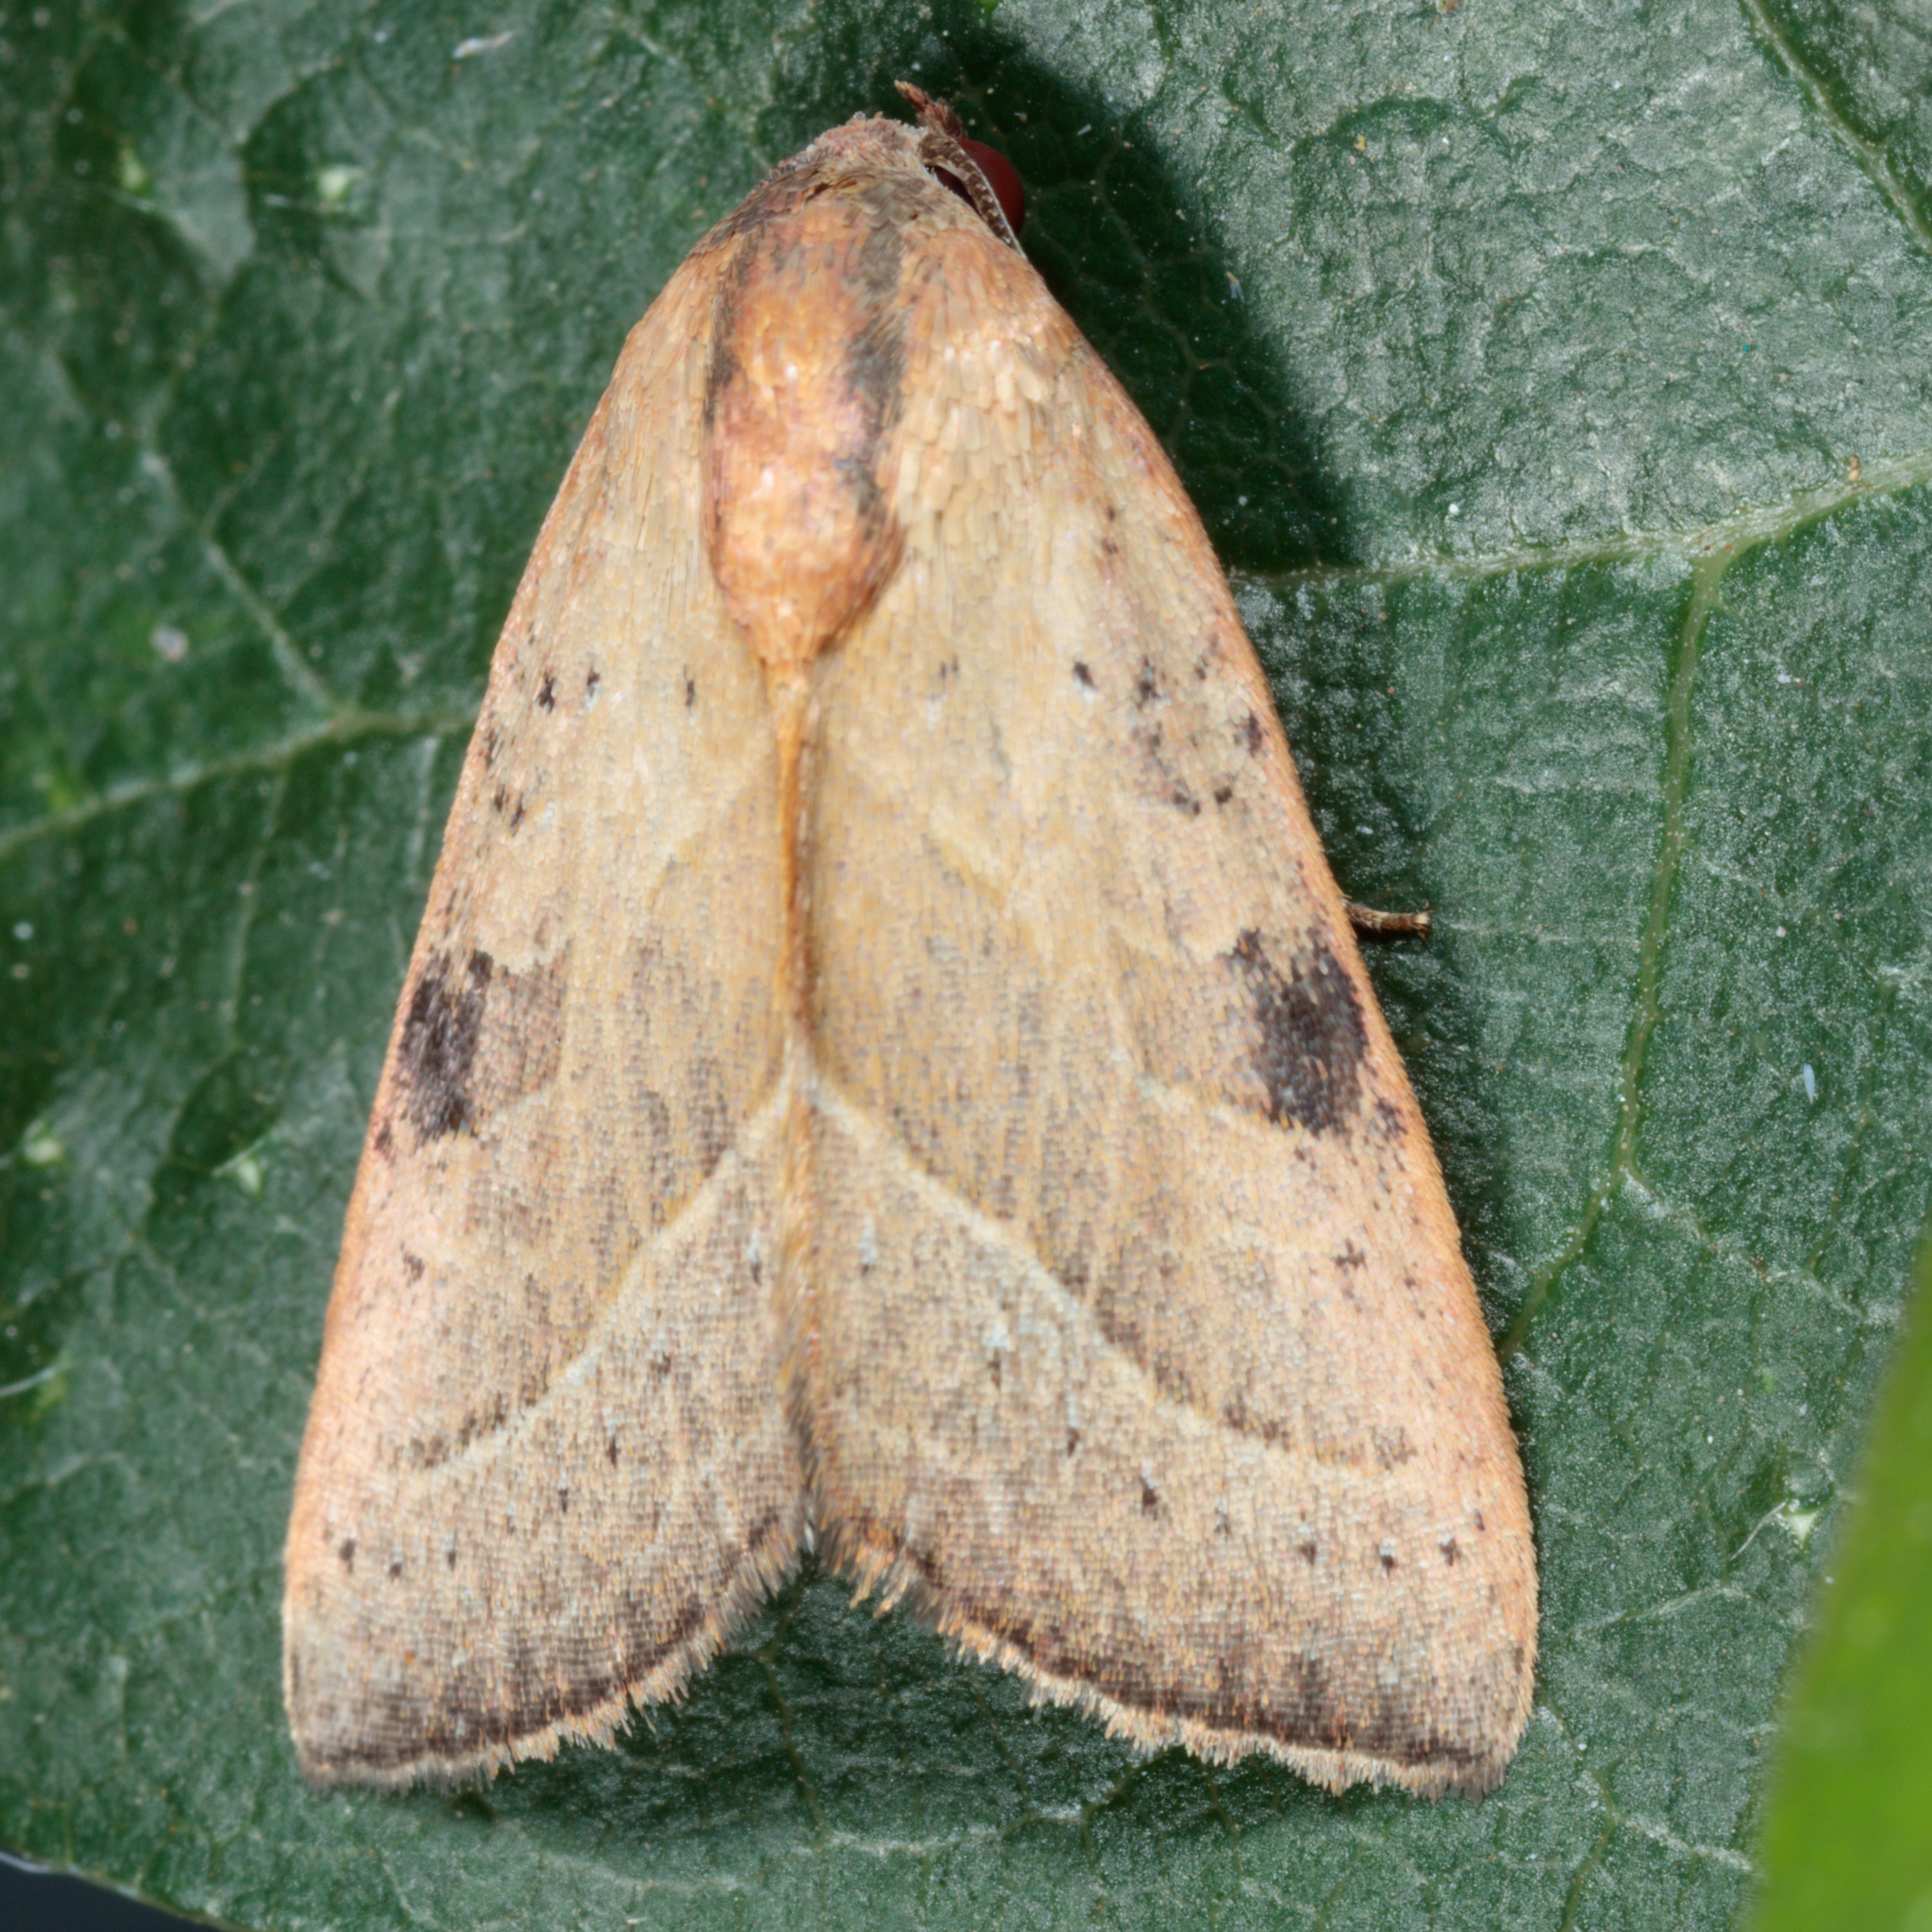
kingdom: Animalia
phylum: Arthropoda
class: Insecta
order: Lepidoptera
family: Noctuidae
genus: Galgula
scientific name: Galgula partita
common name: Wedgeling
